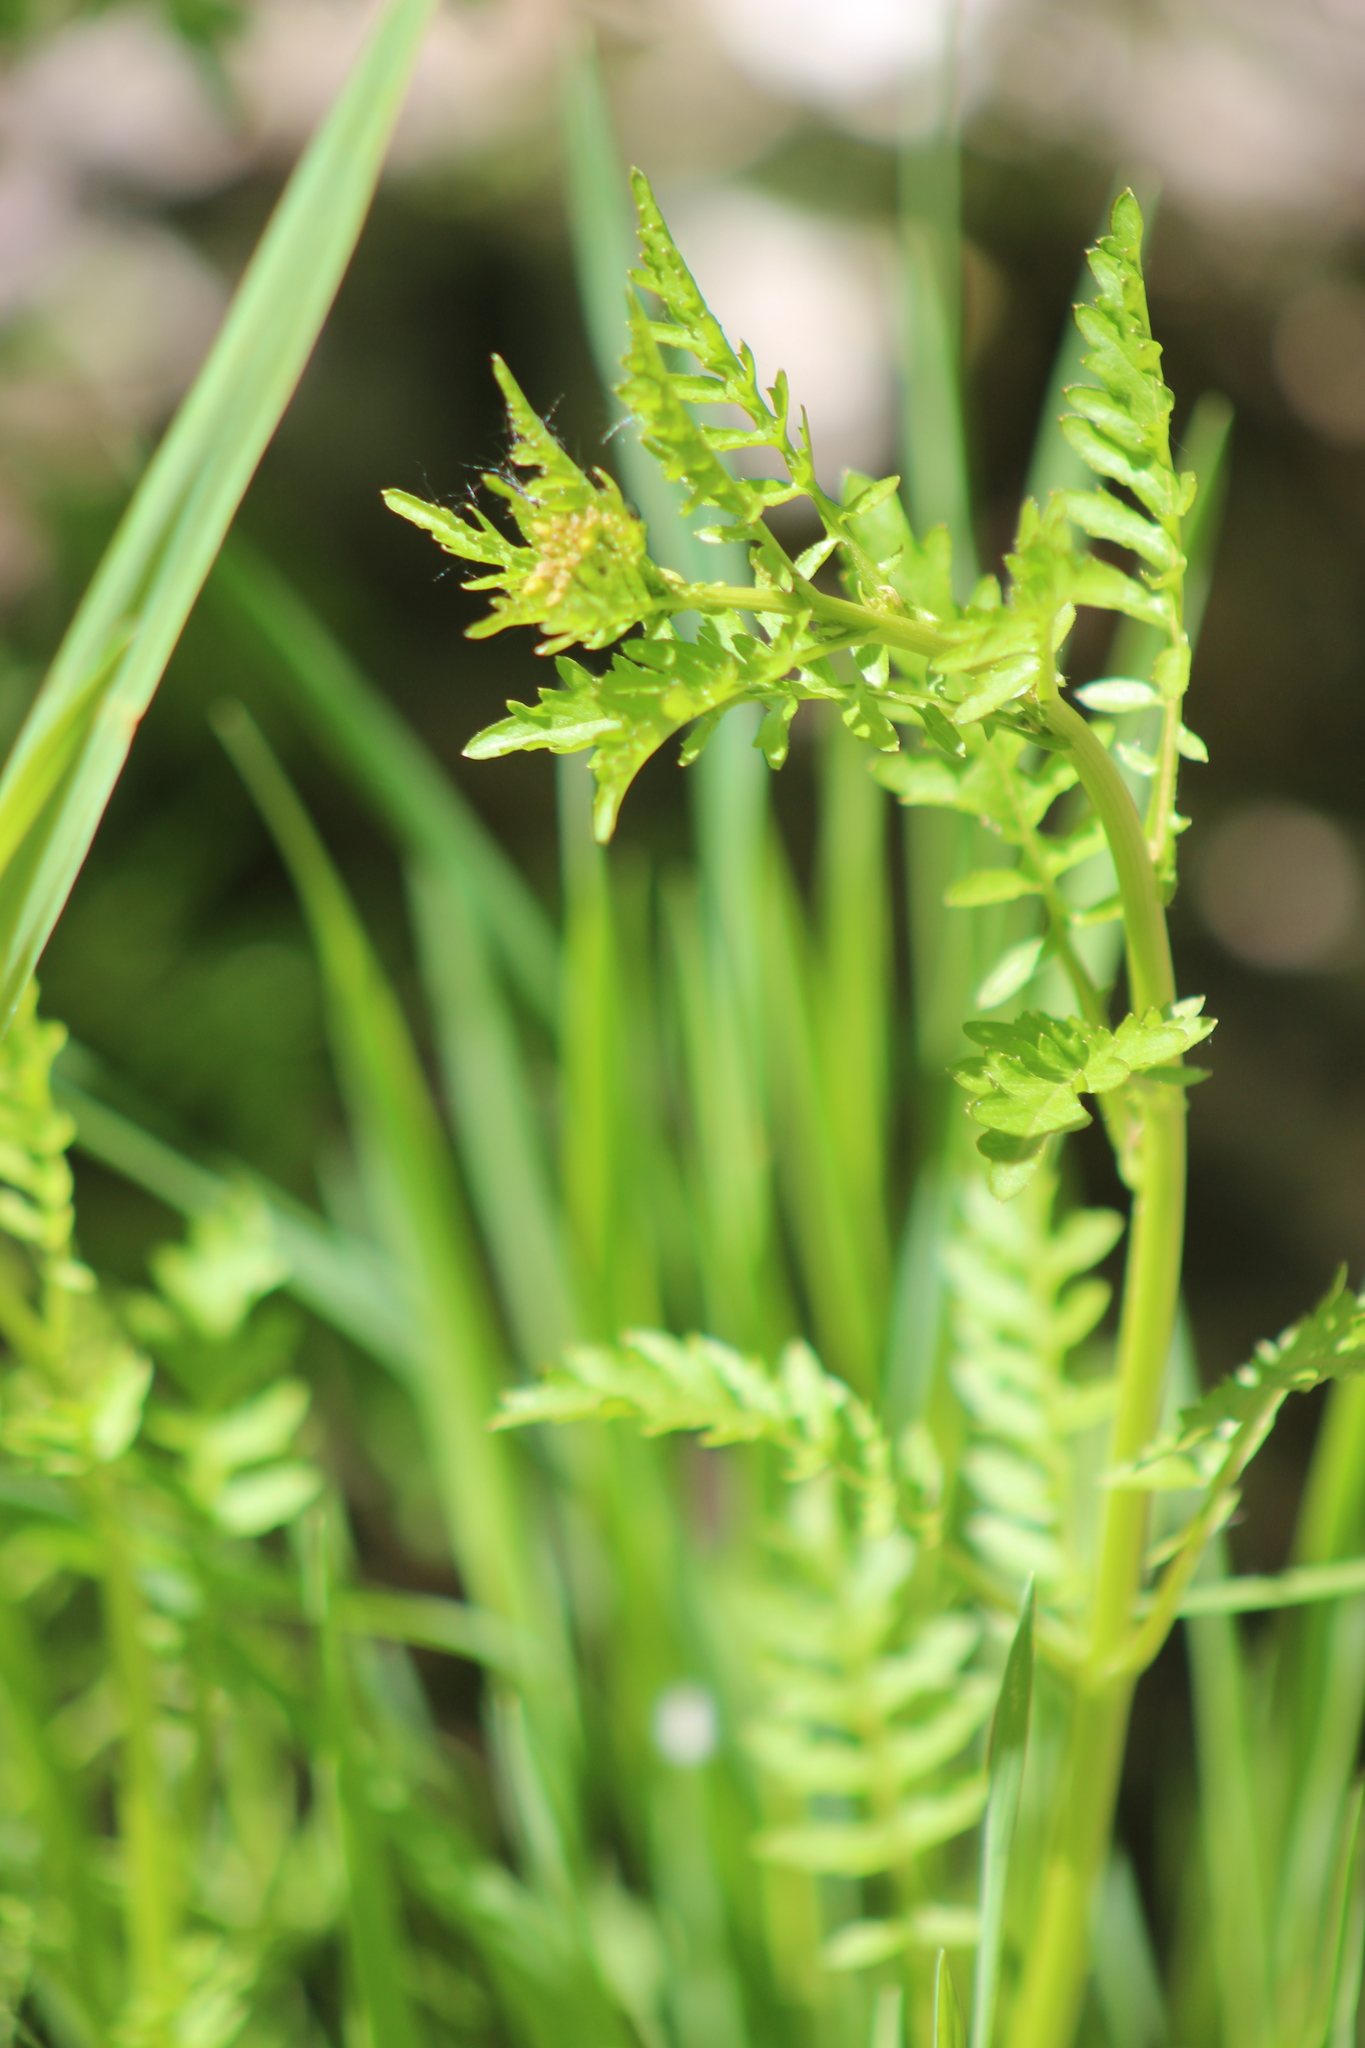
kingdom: Plantae
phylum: Tracheophyta
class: Magnoliopsida
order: Brassicales
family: Brassicaceae
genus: Rorippa
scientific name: Rorippa palustris
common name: Marsh yellow-cress
